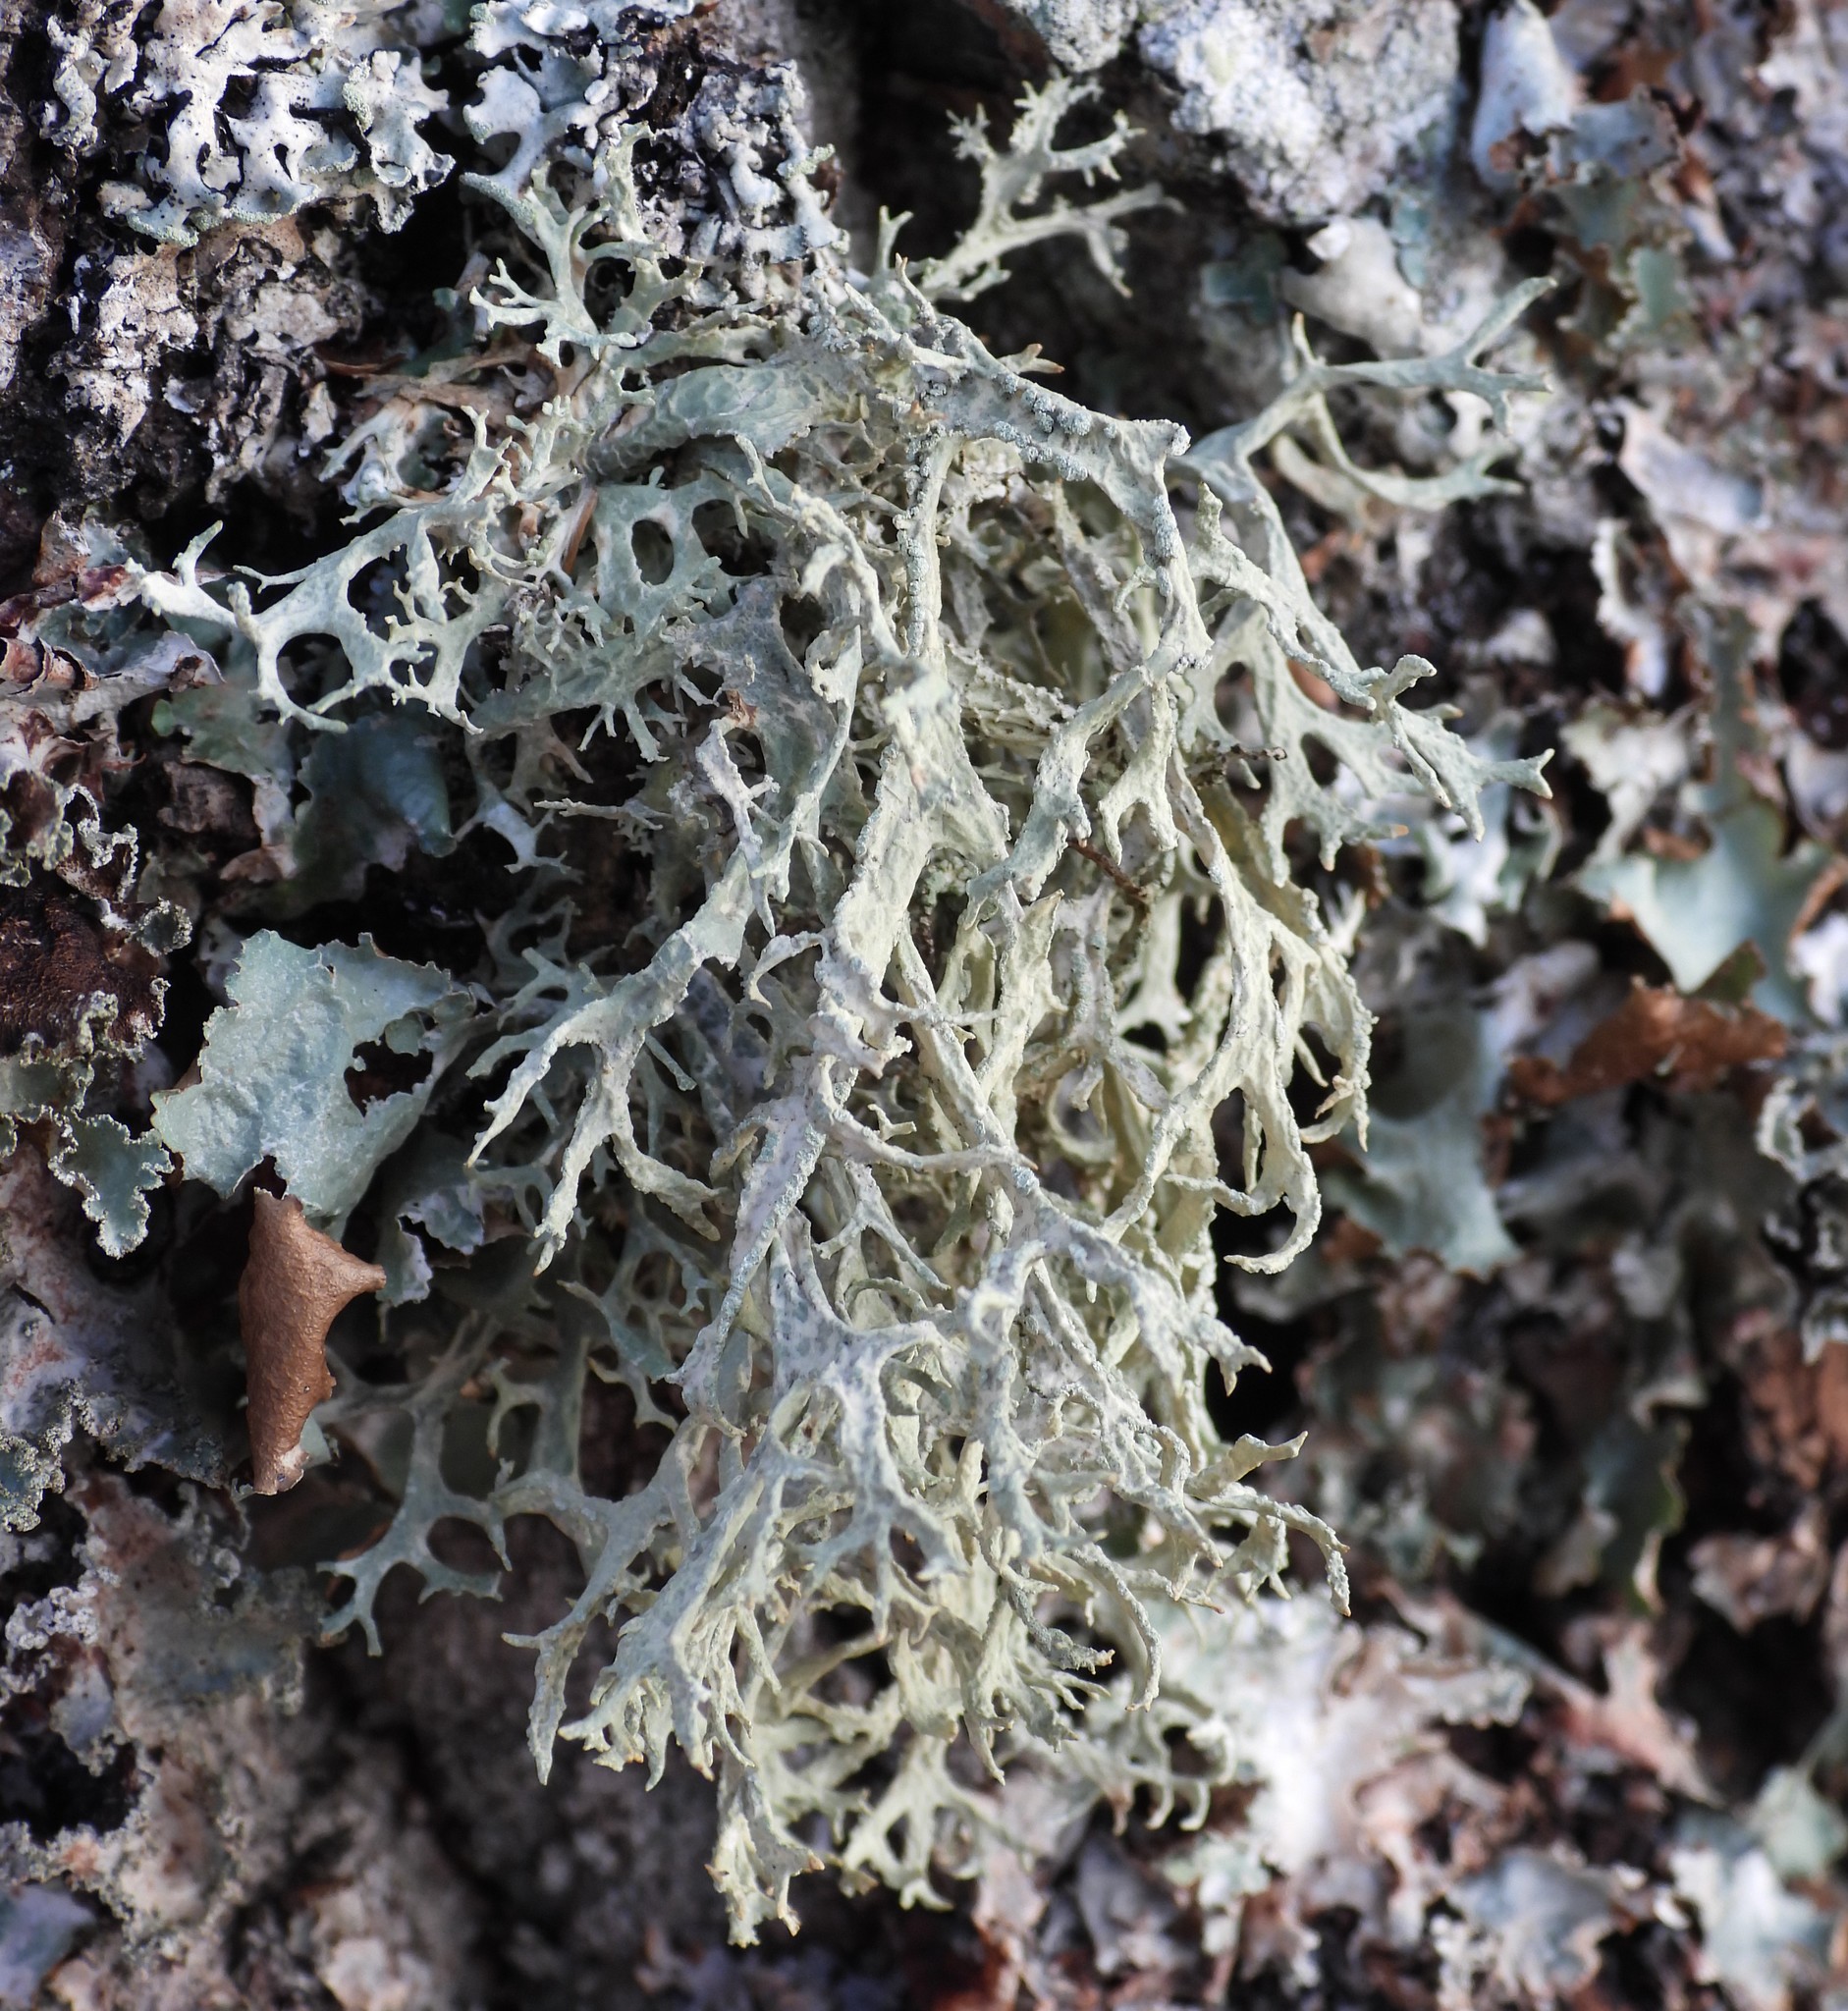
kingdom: Fungi
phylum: Ascomycota
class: Lecanoromycetes
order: Lecanorales
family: Parmeliaceae
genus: Evernia
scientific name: Evernia prunastri
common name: Oak moss
